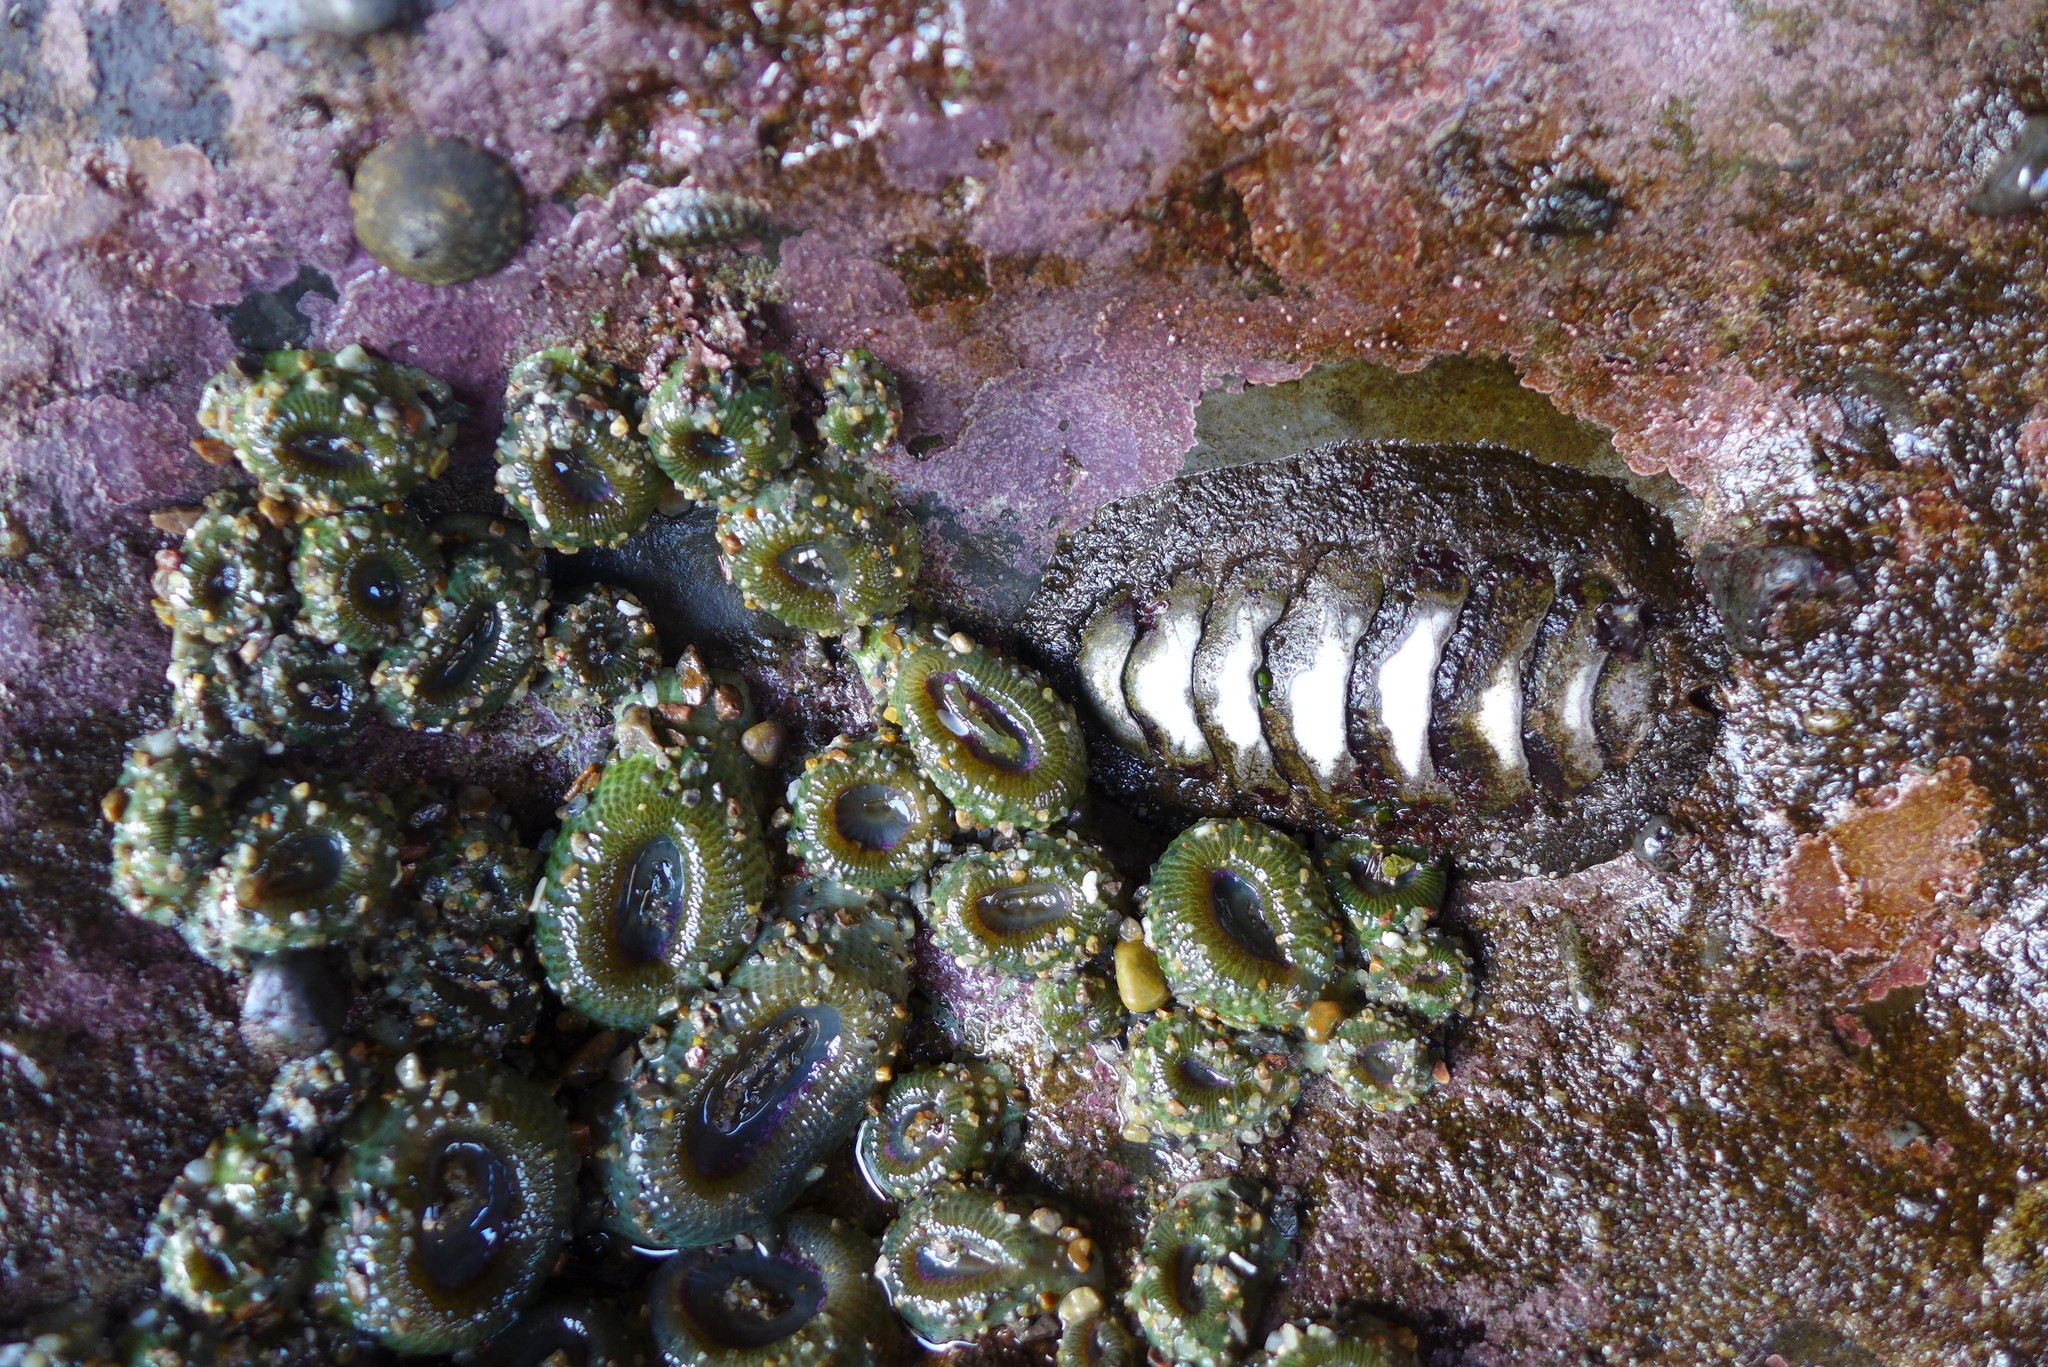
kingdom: Animalia
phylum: Mollusca
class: Polyplacophora
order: Chitonida
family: Mopaliidae
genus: Mopalia
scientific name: Mopalia muscosa
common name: Mossy chiton
